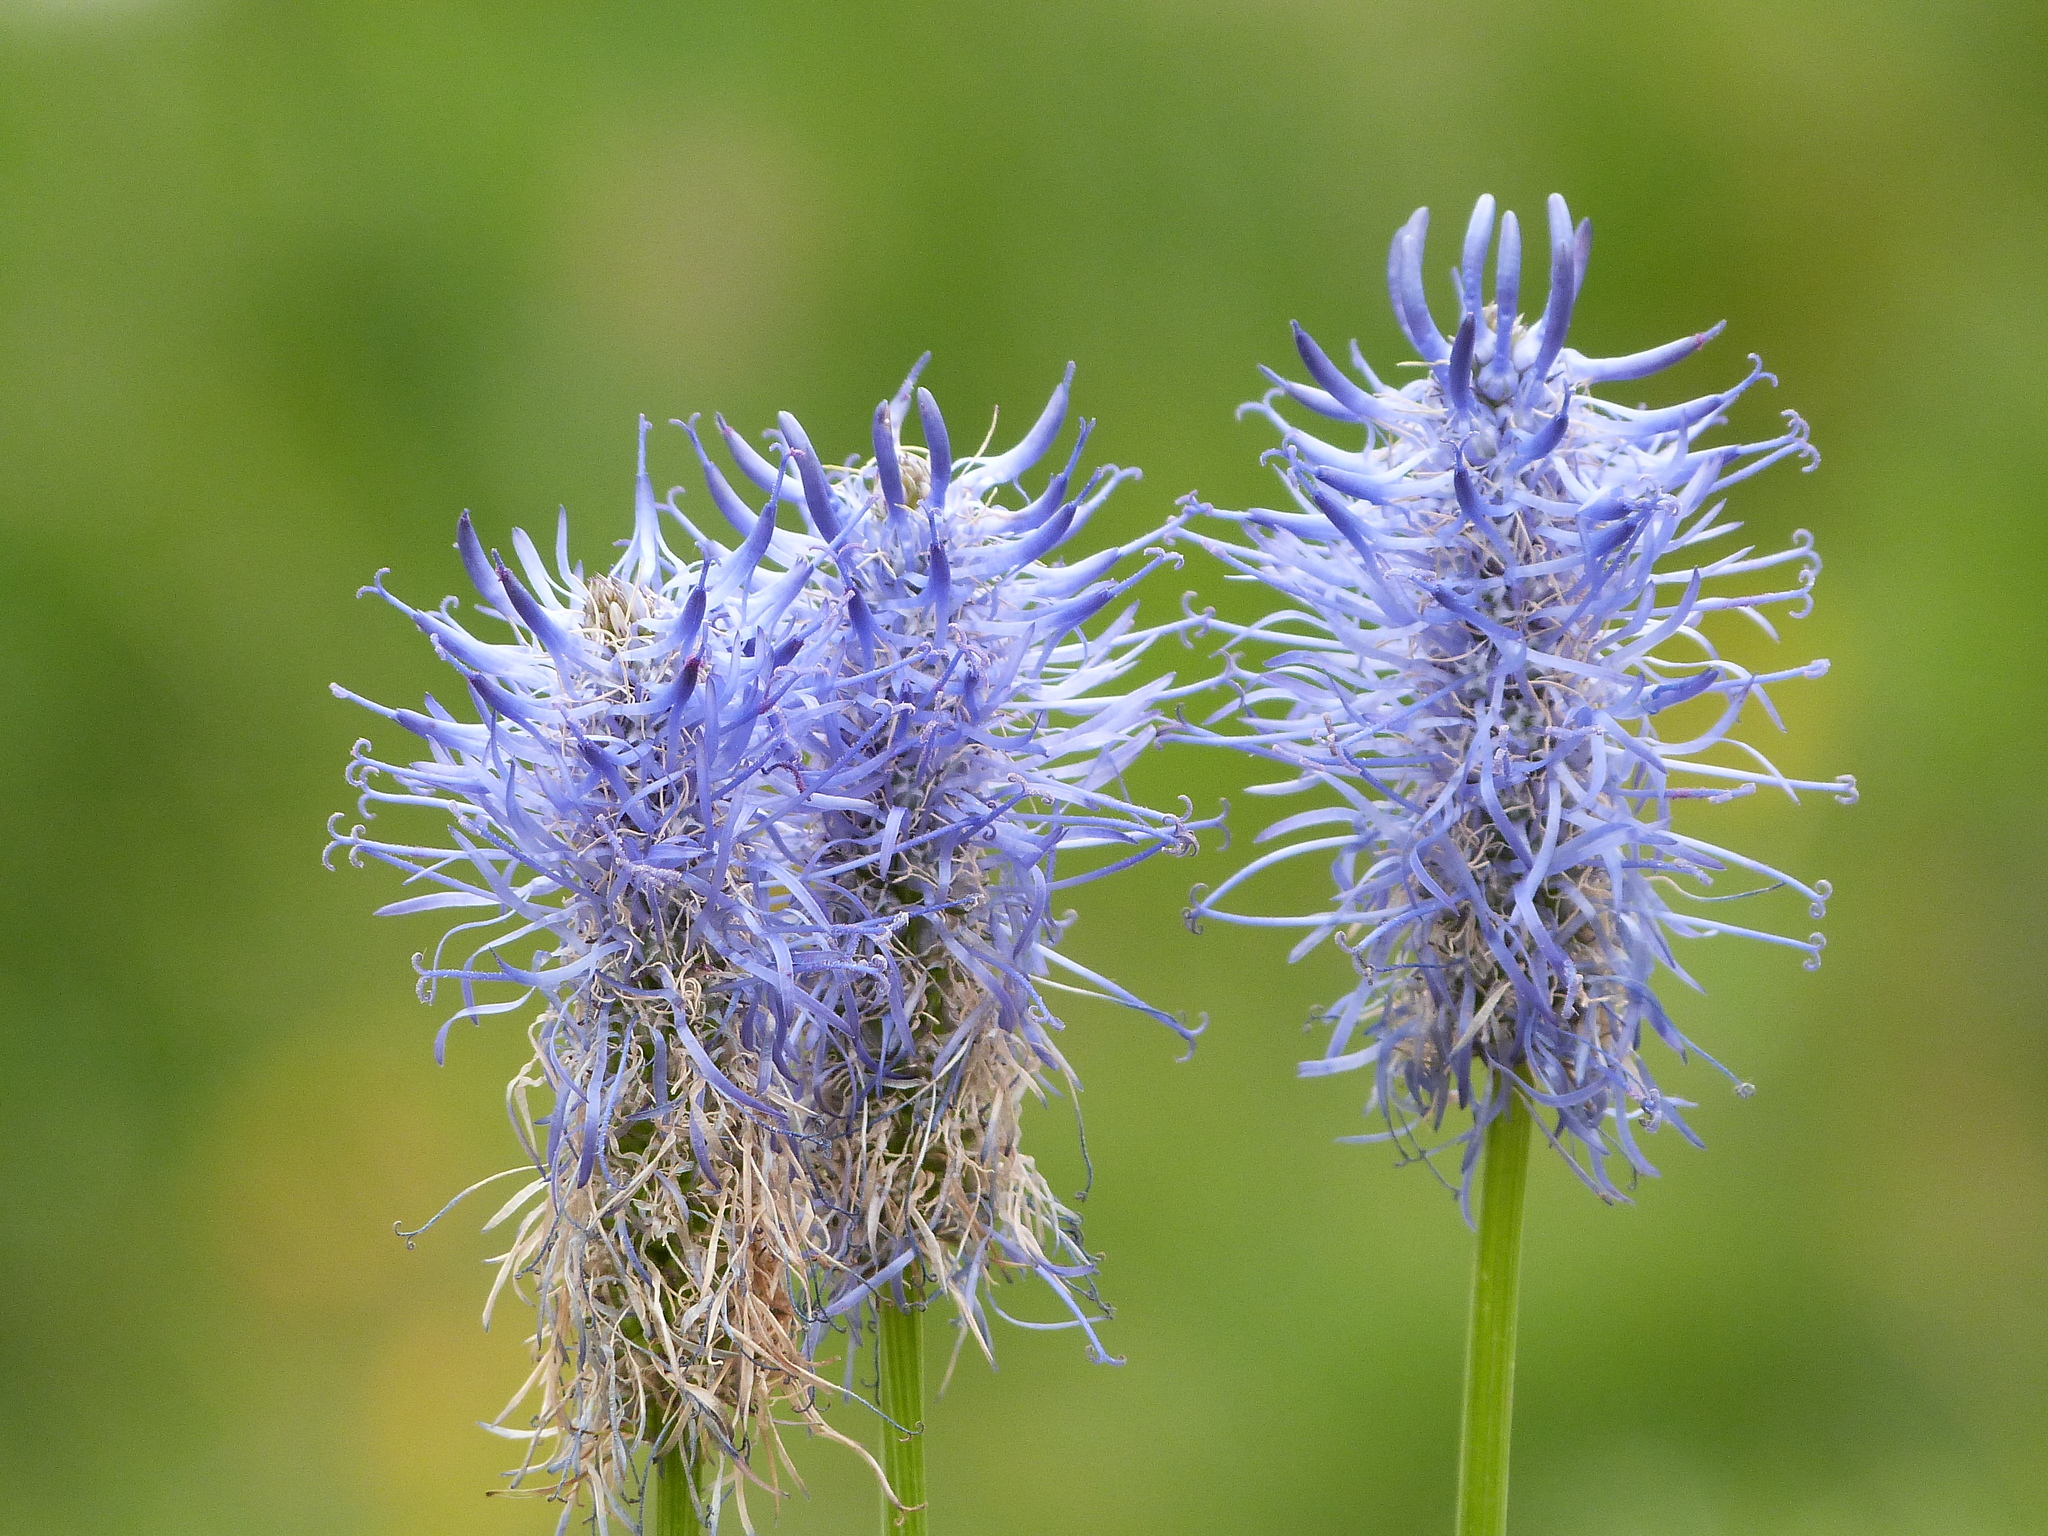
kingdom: Plantae
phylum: Tracheophyta
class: Magnoliopsida
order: Asterales
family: Campanulaceae
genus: Phyteuma
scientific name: Phyteuma spicatum
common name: Spiked rampion
